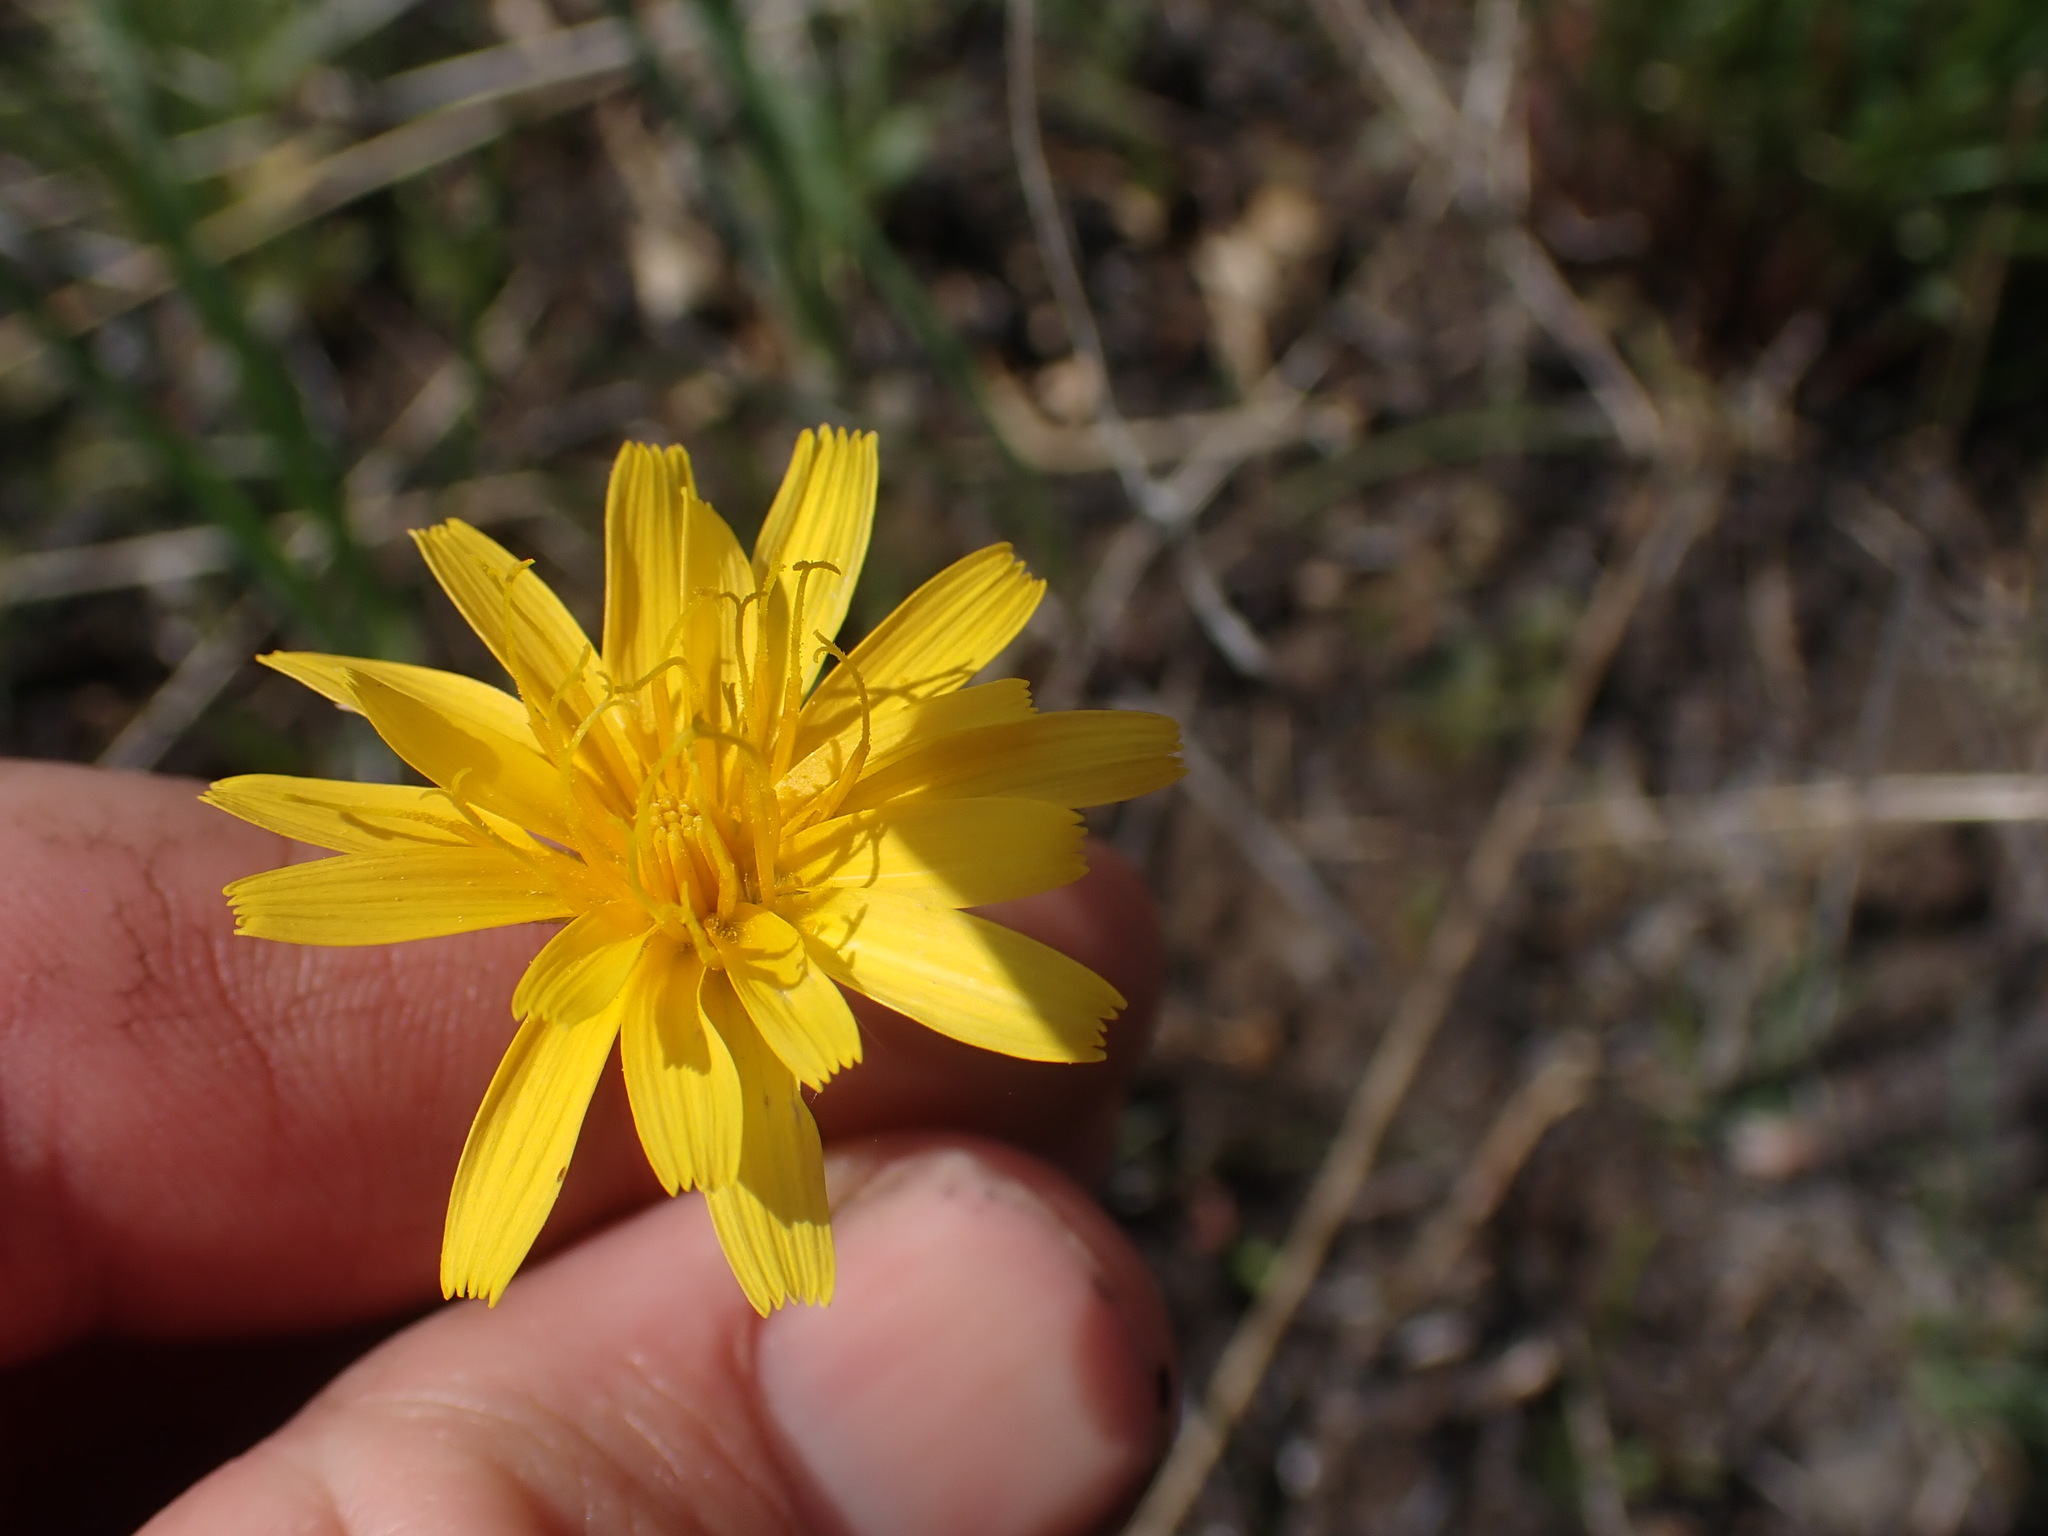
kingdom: Plantae
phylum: Tracheophyta
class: Magnoliopsida
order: Asterales
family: Asteraceae
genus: Crepis
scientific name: Crepis atribarba
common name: Dark hawk's-beard
